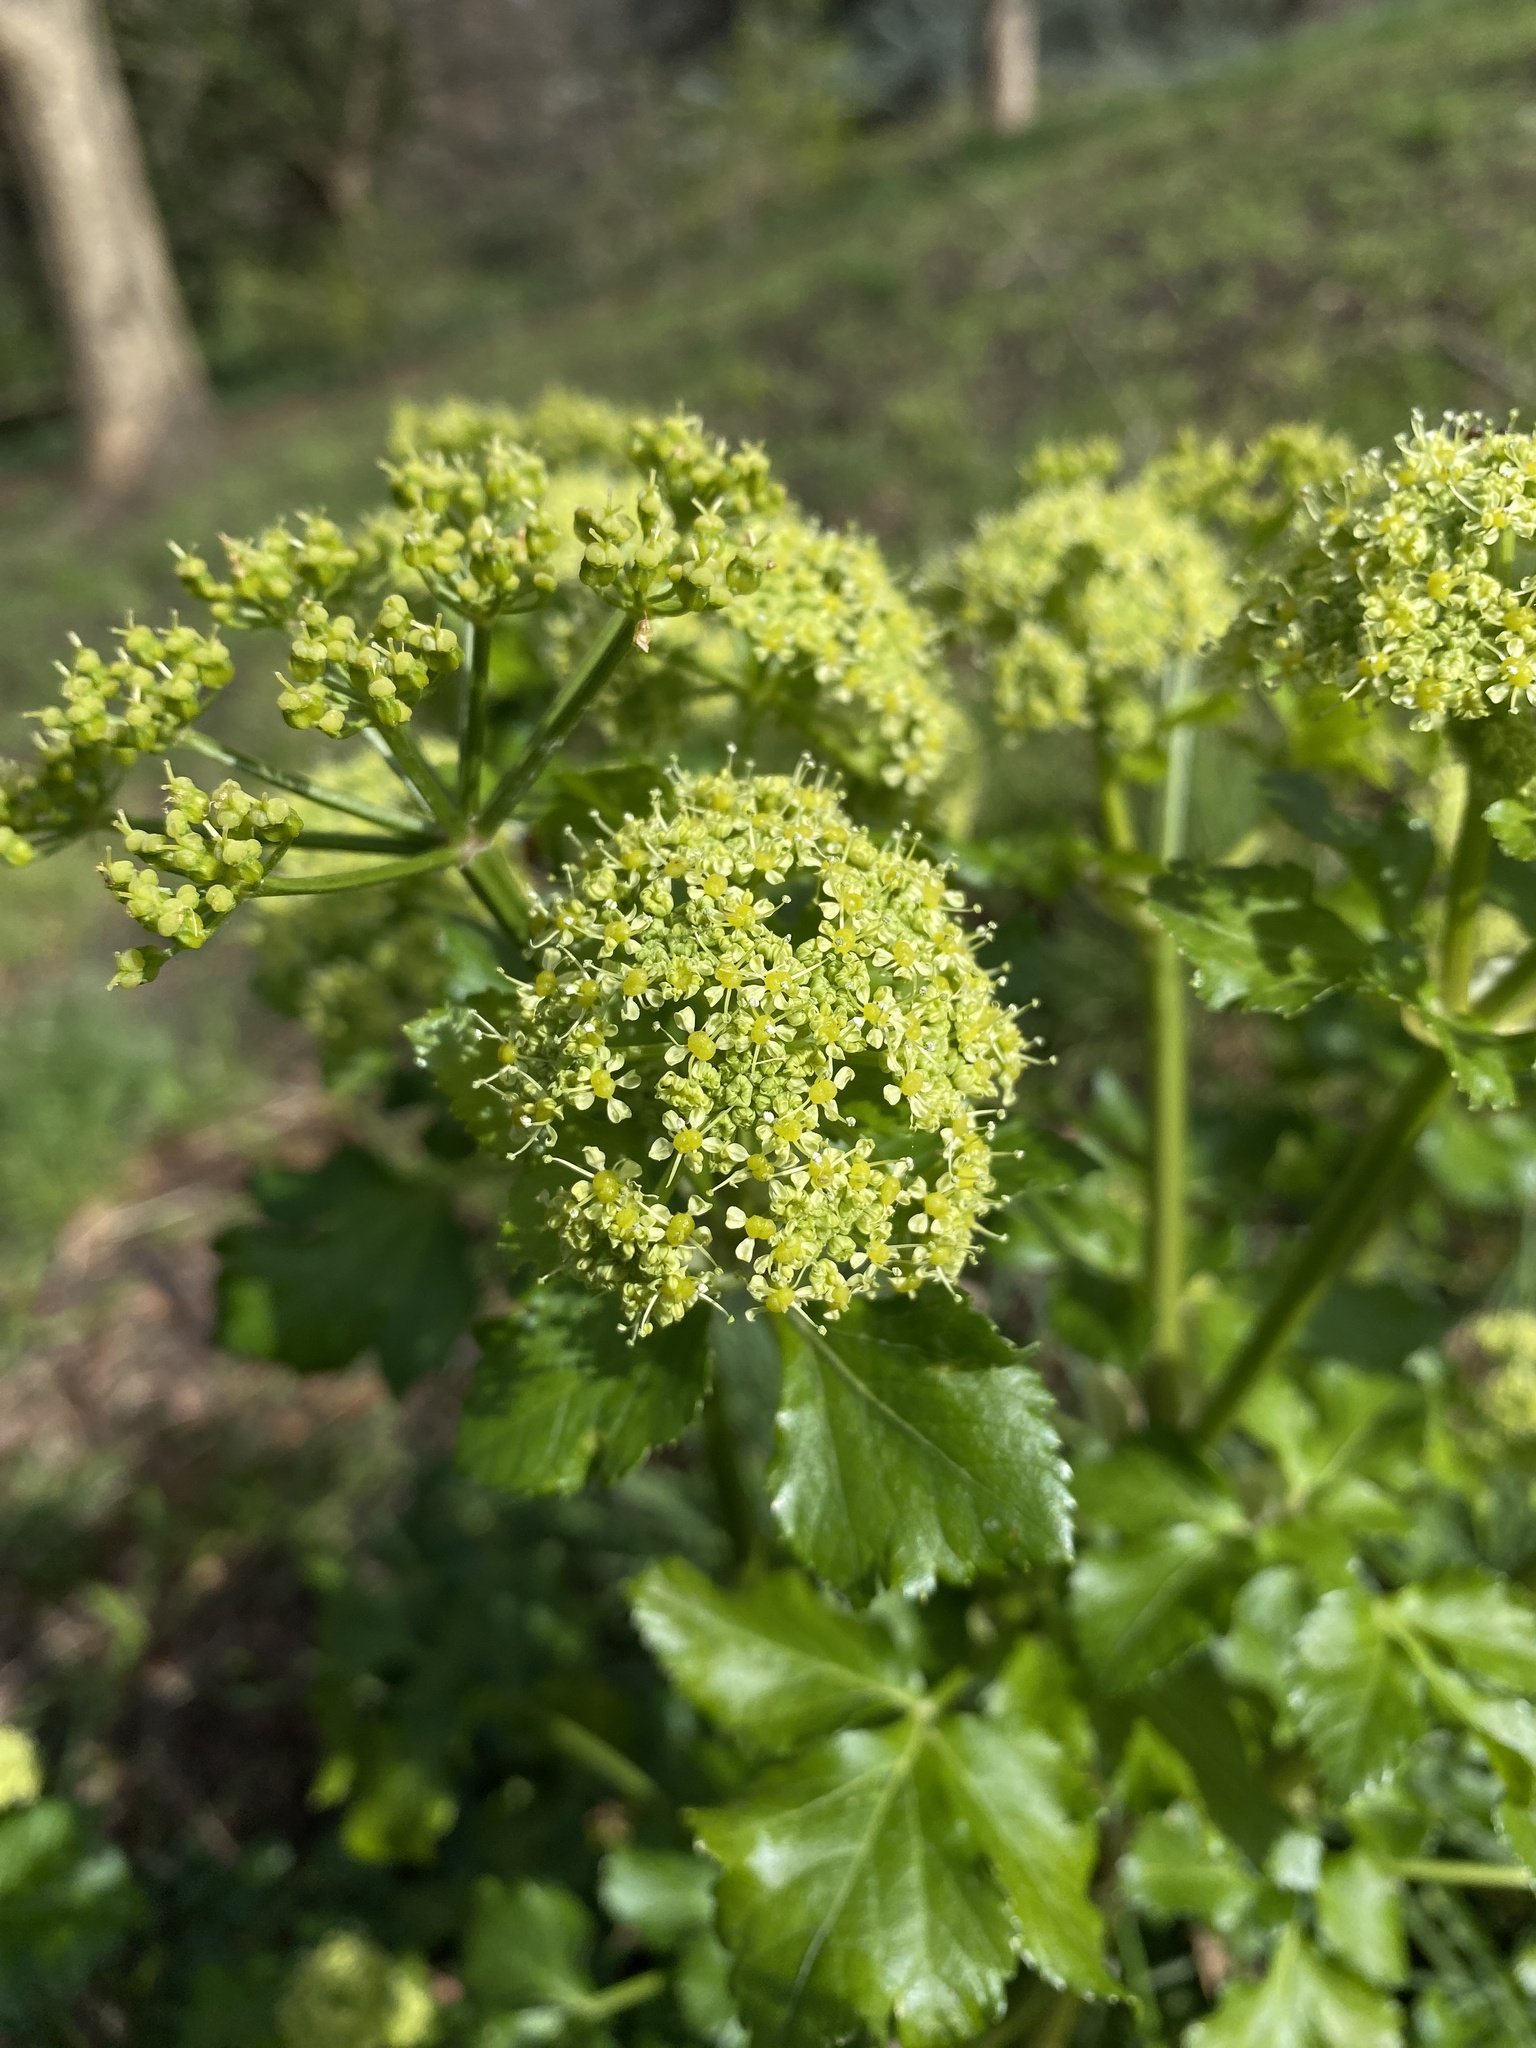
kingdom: Plantae
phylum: Tracheophyta
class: Magnoliopsida
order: Apiales
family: Apiaceae
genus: Smyrnium
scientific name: Smyrnium olusatrum
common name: Alexanders
